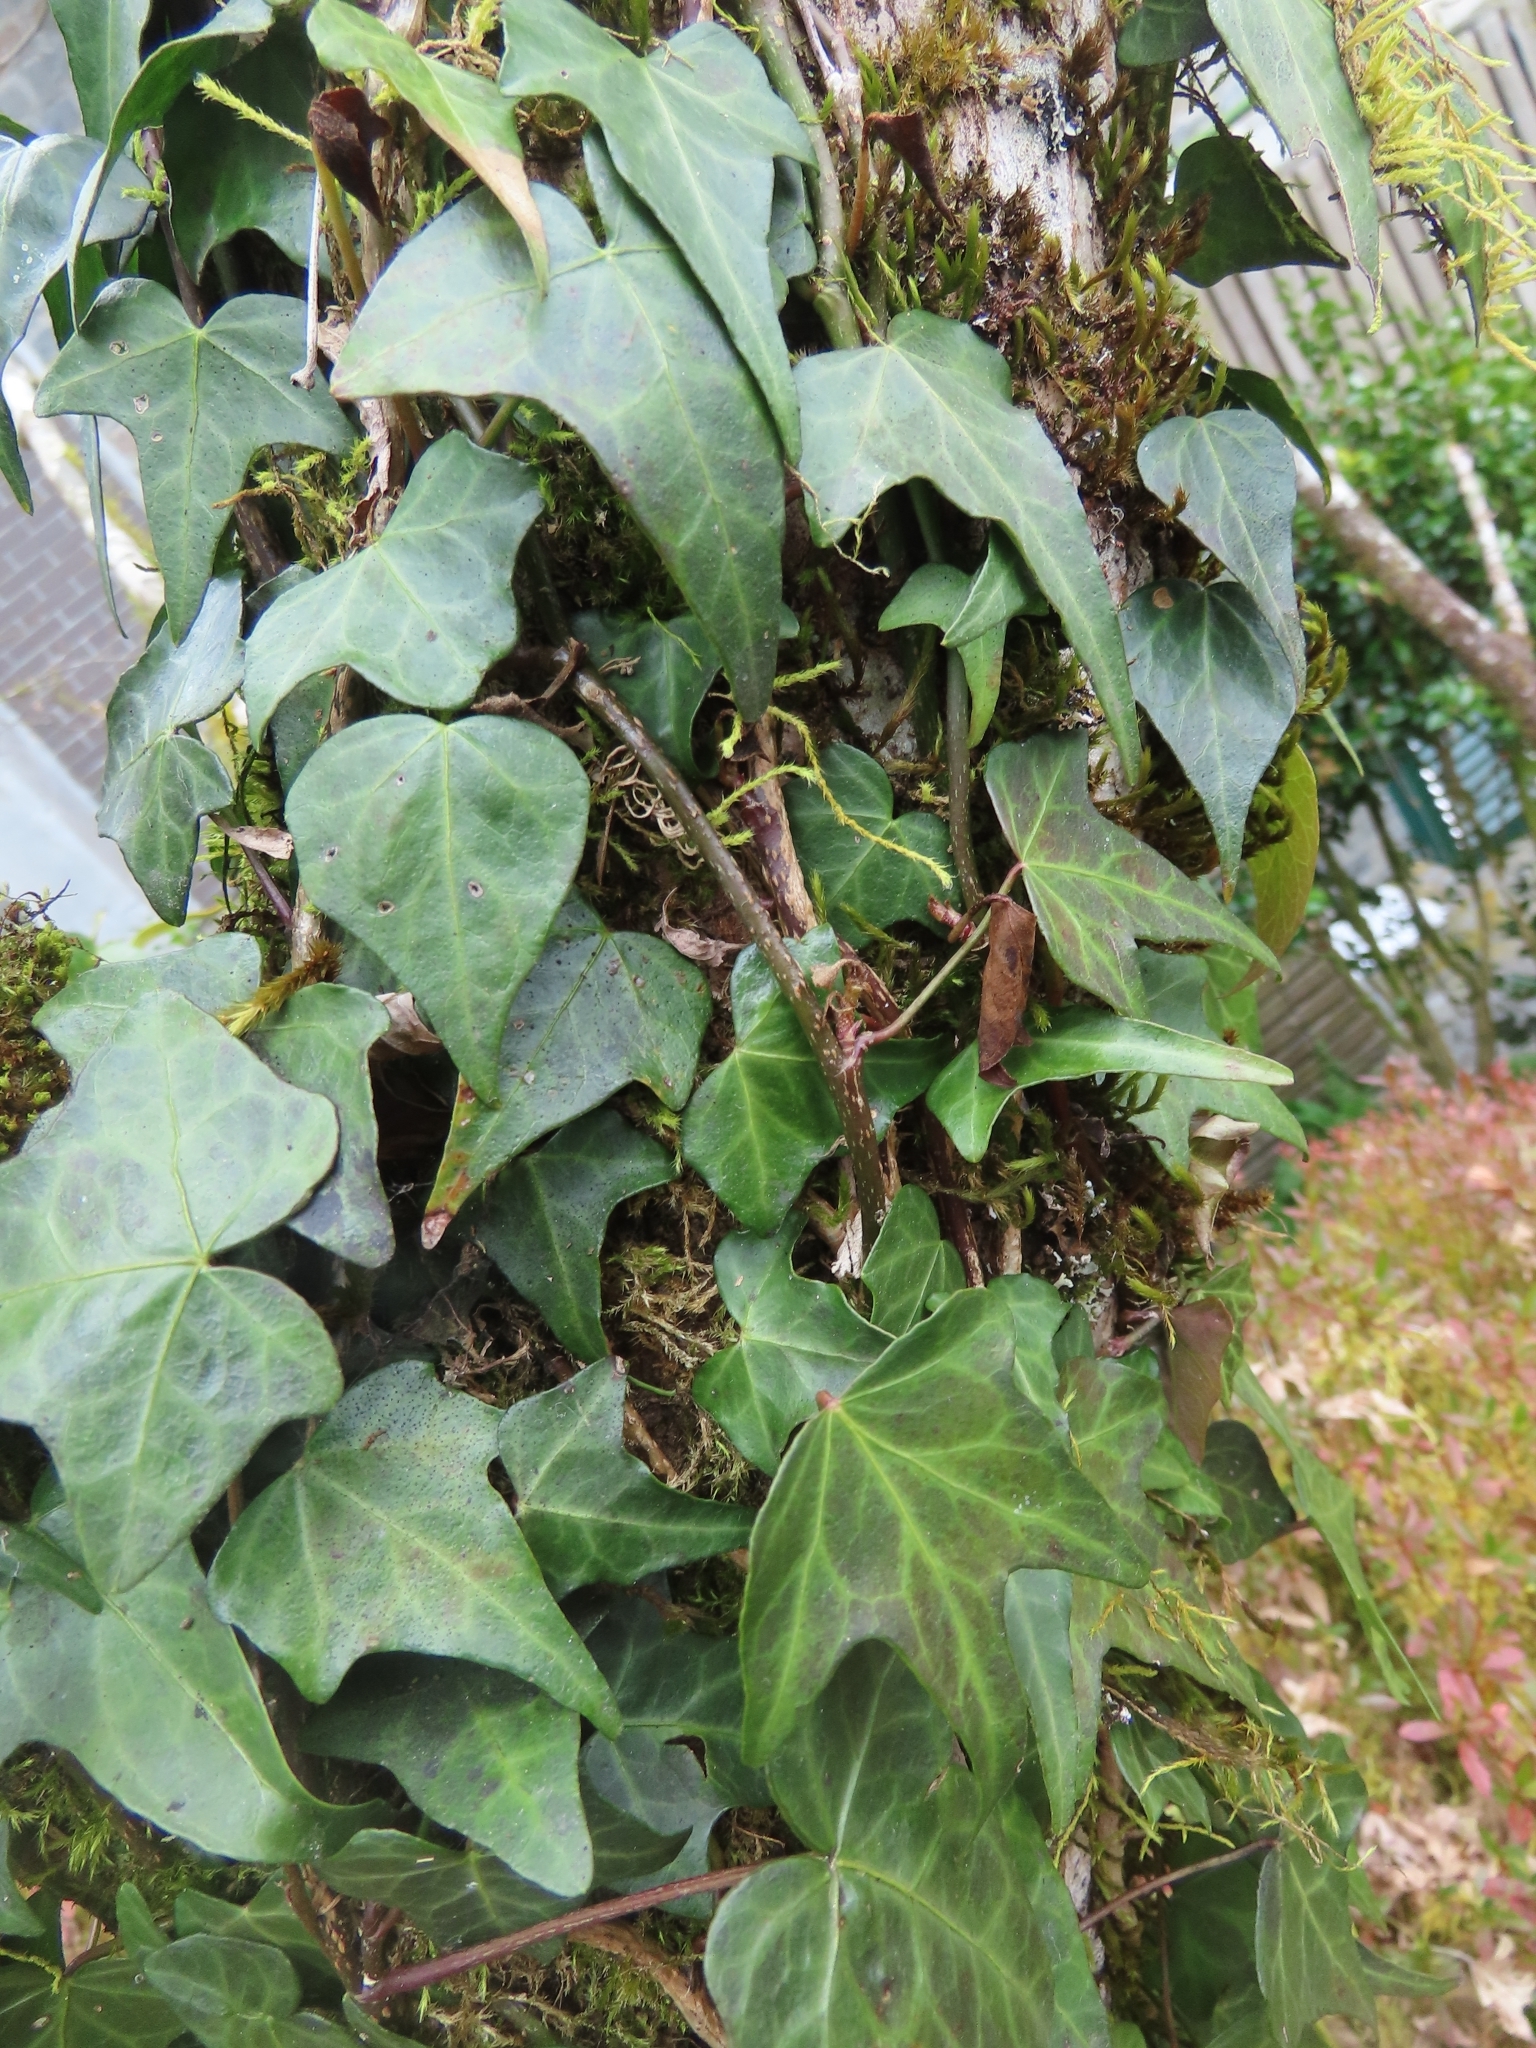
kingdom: Plantae
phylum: Tracheophyta
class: Magnoliopsida
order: Apiales
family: Araliaceae
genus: Hedera
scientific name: Hedera rhombea
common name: Japanese ivy
